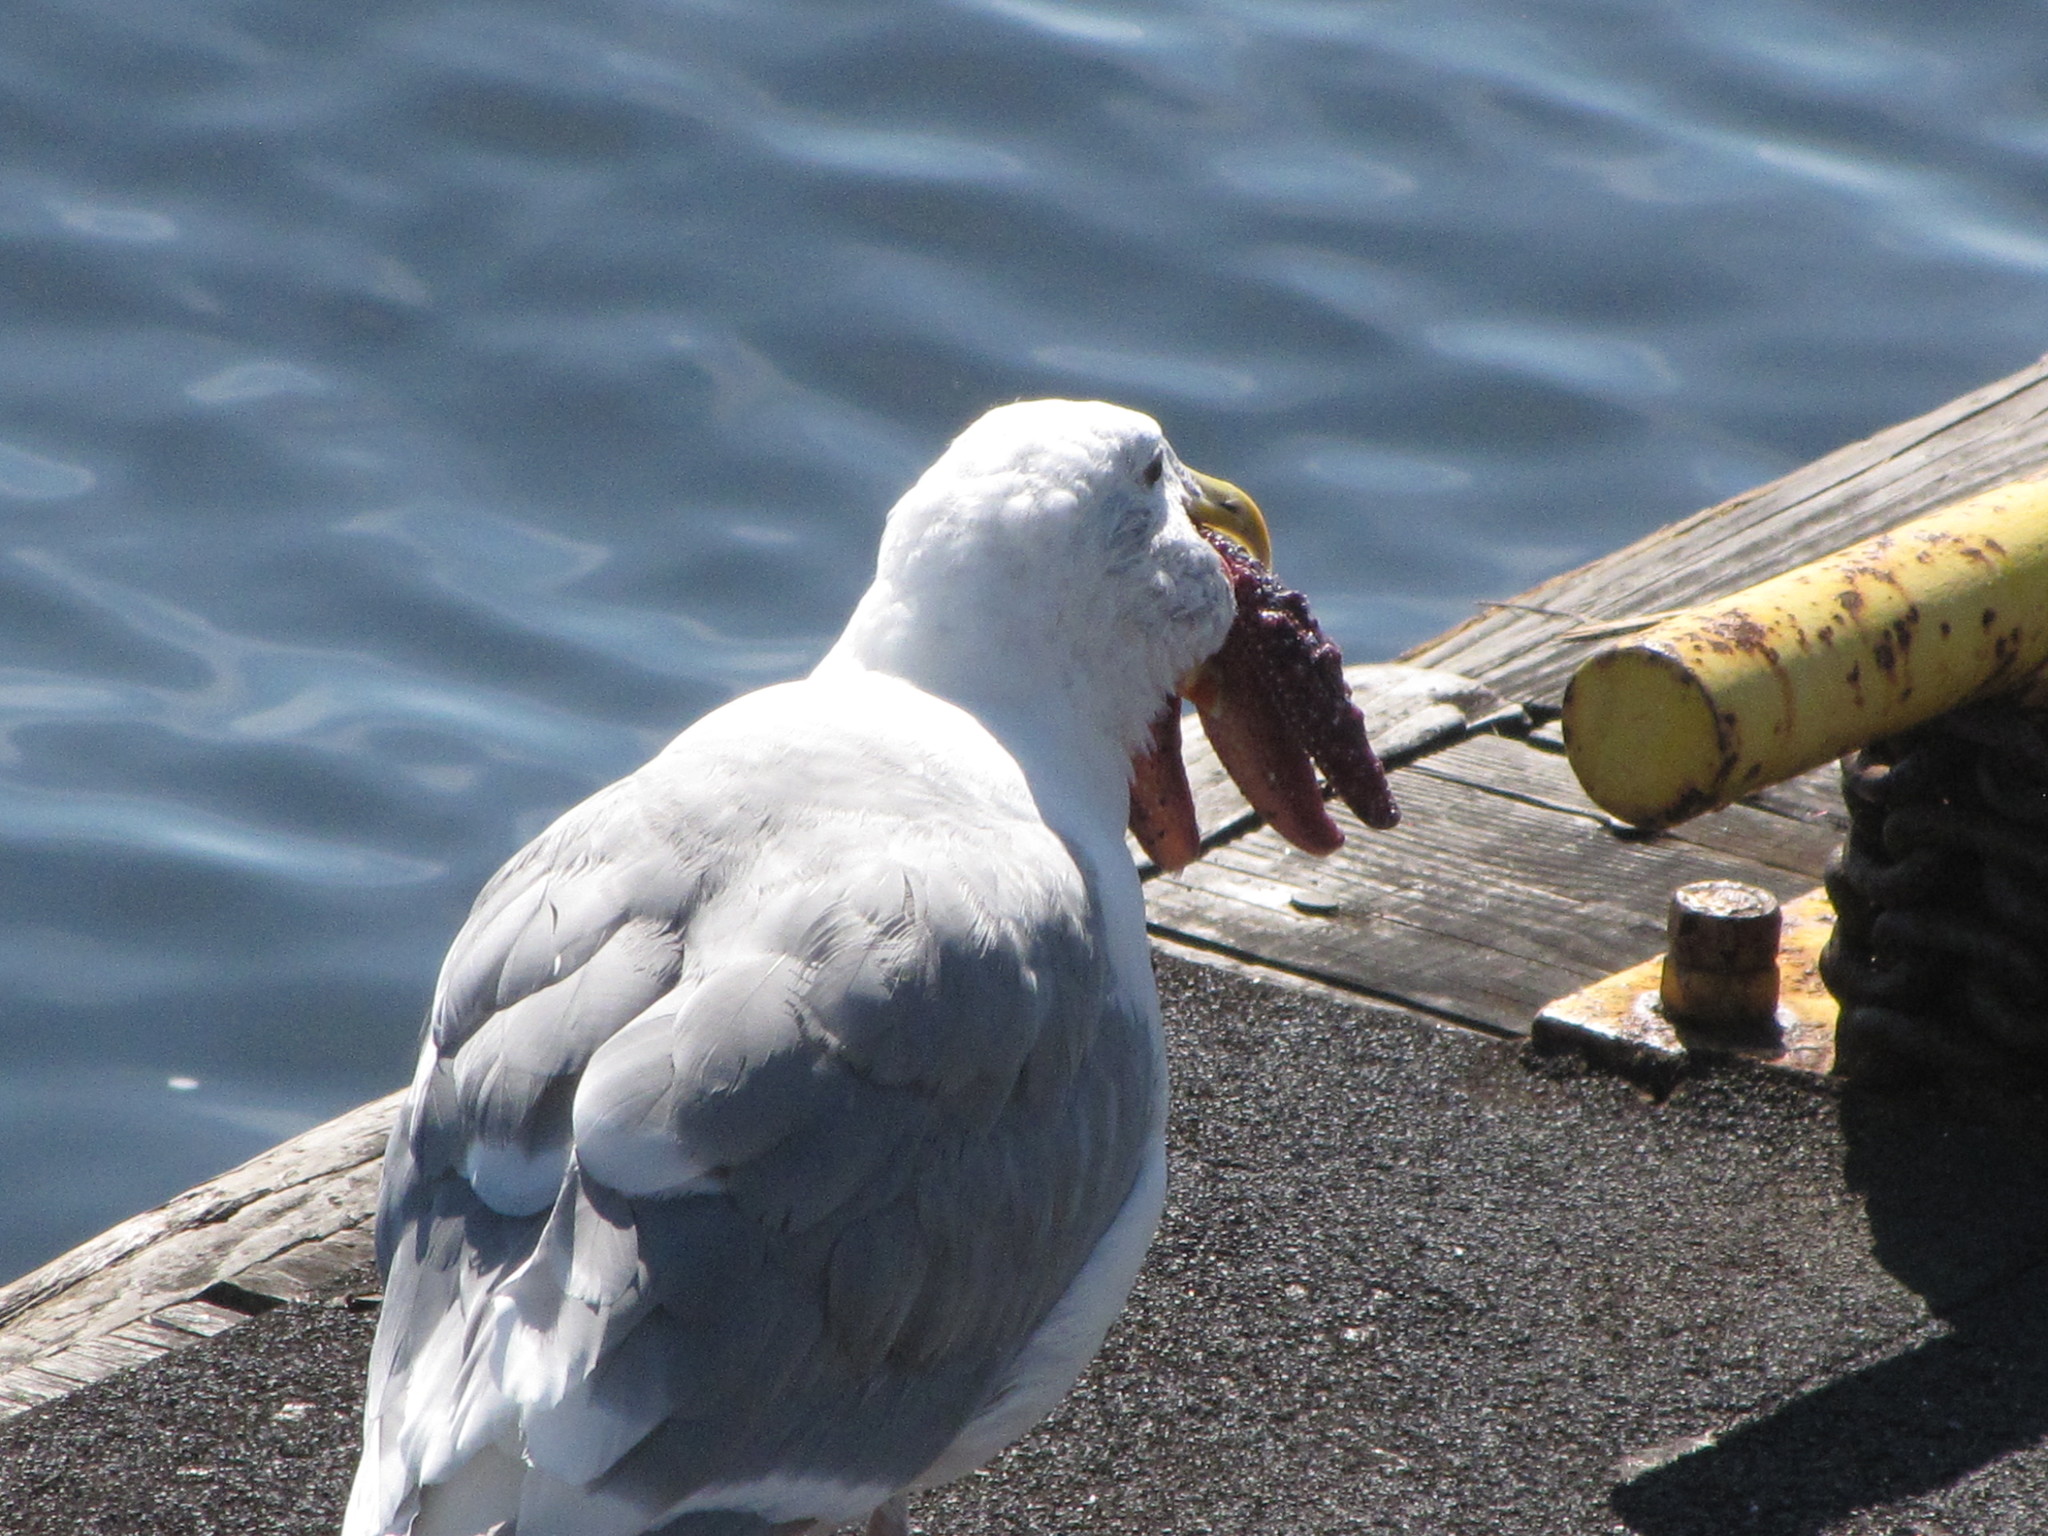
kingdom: Animalia
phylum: Echinodermata
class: Asteroidea
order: Forcipulatida
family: Asteriidae
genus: Pisaster
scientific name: Pisaster ochraceus
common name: Ochre stars
